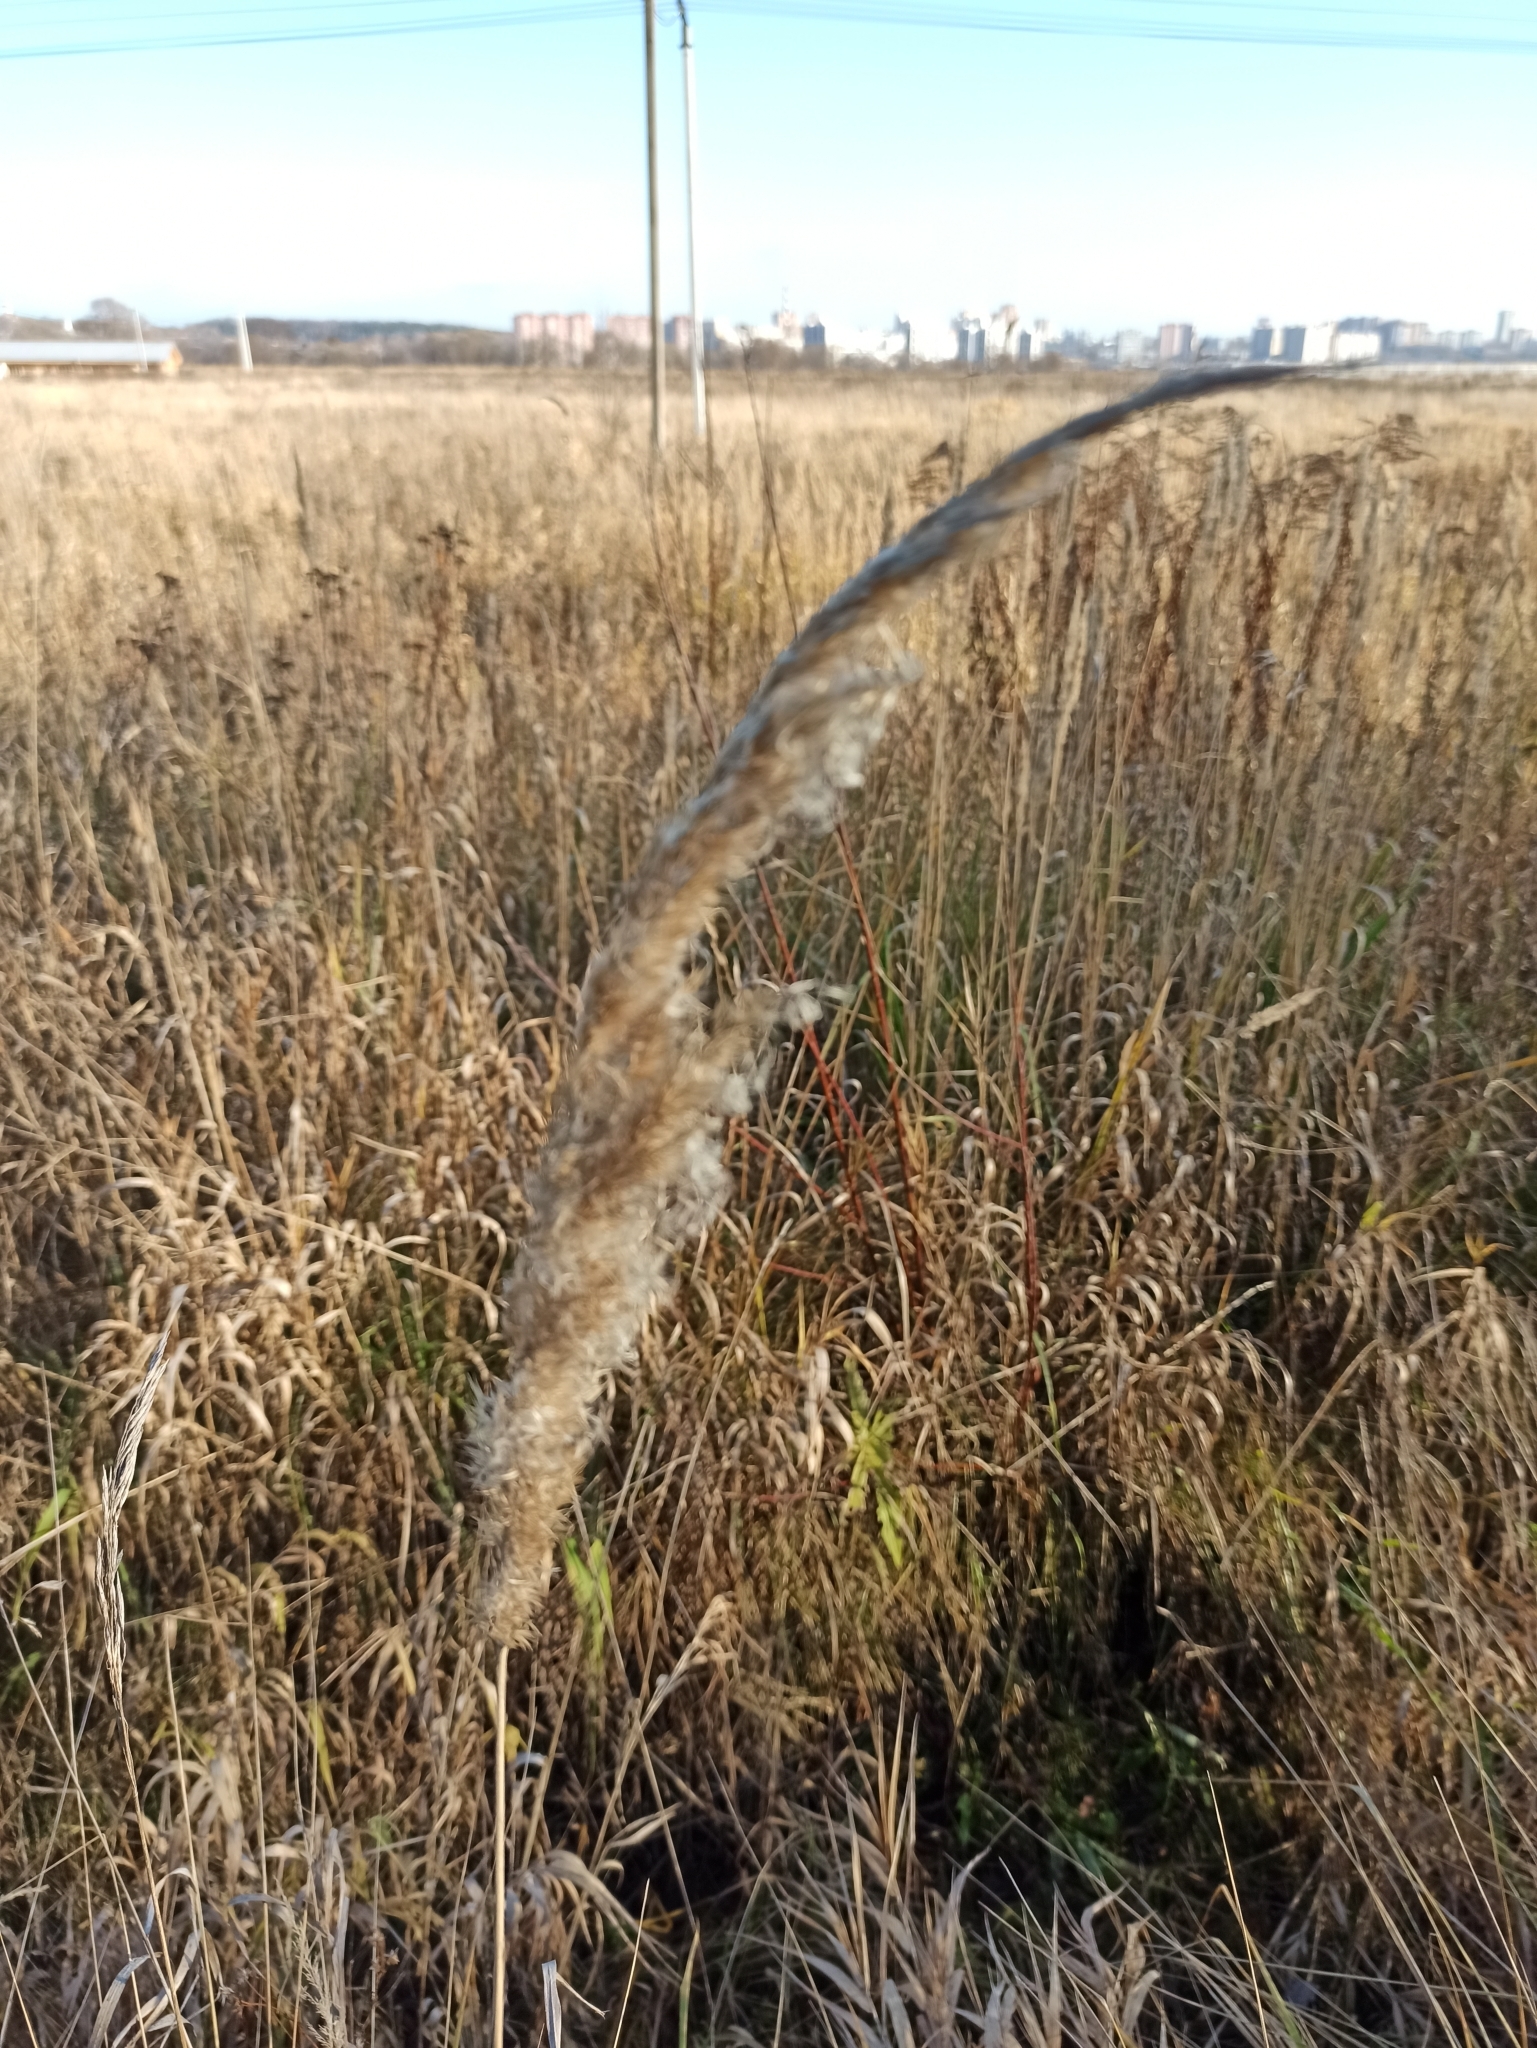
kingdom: Plantae
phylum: Tracheophyta
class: Liliopsida
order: Poales
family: Poaceae
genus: Phragmites
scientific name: Phragmites australis
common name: Common reed
